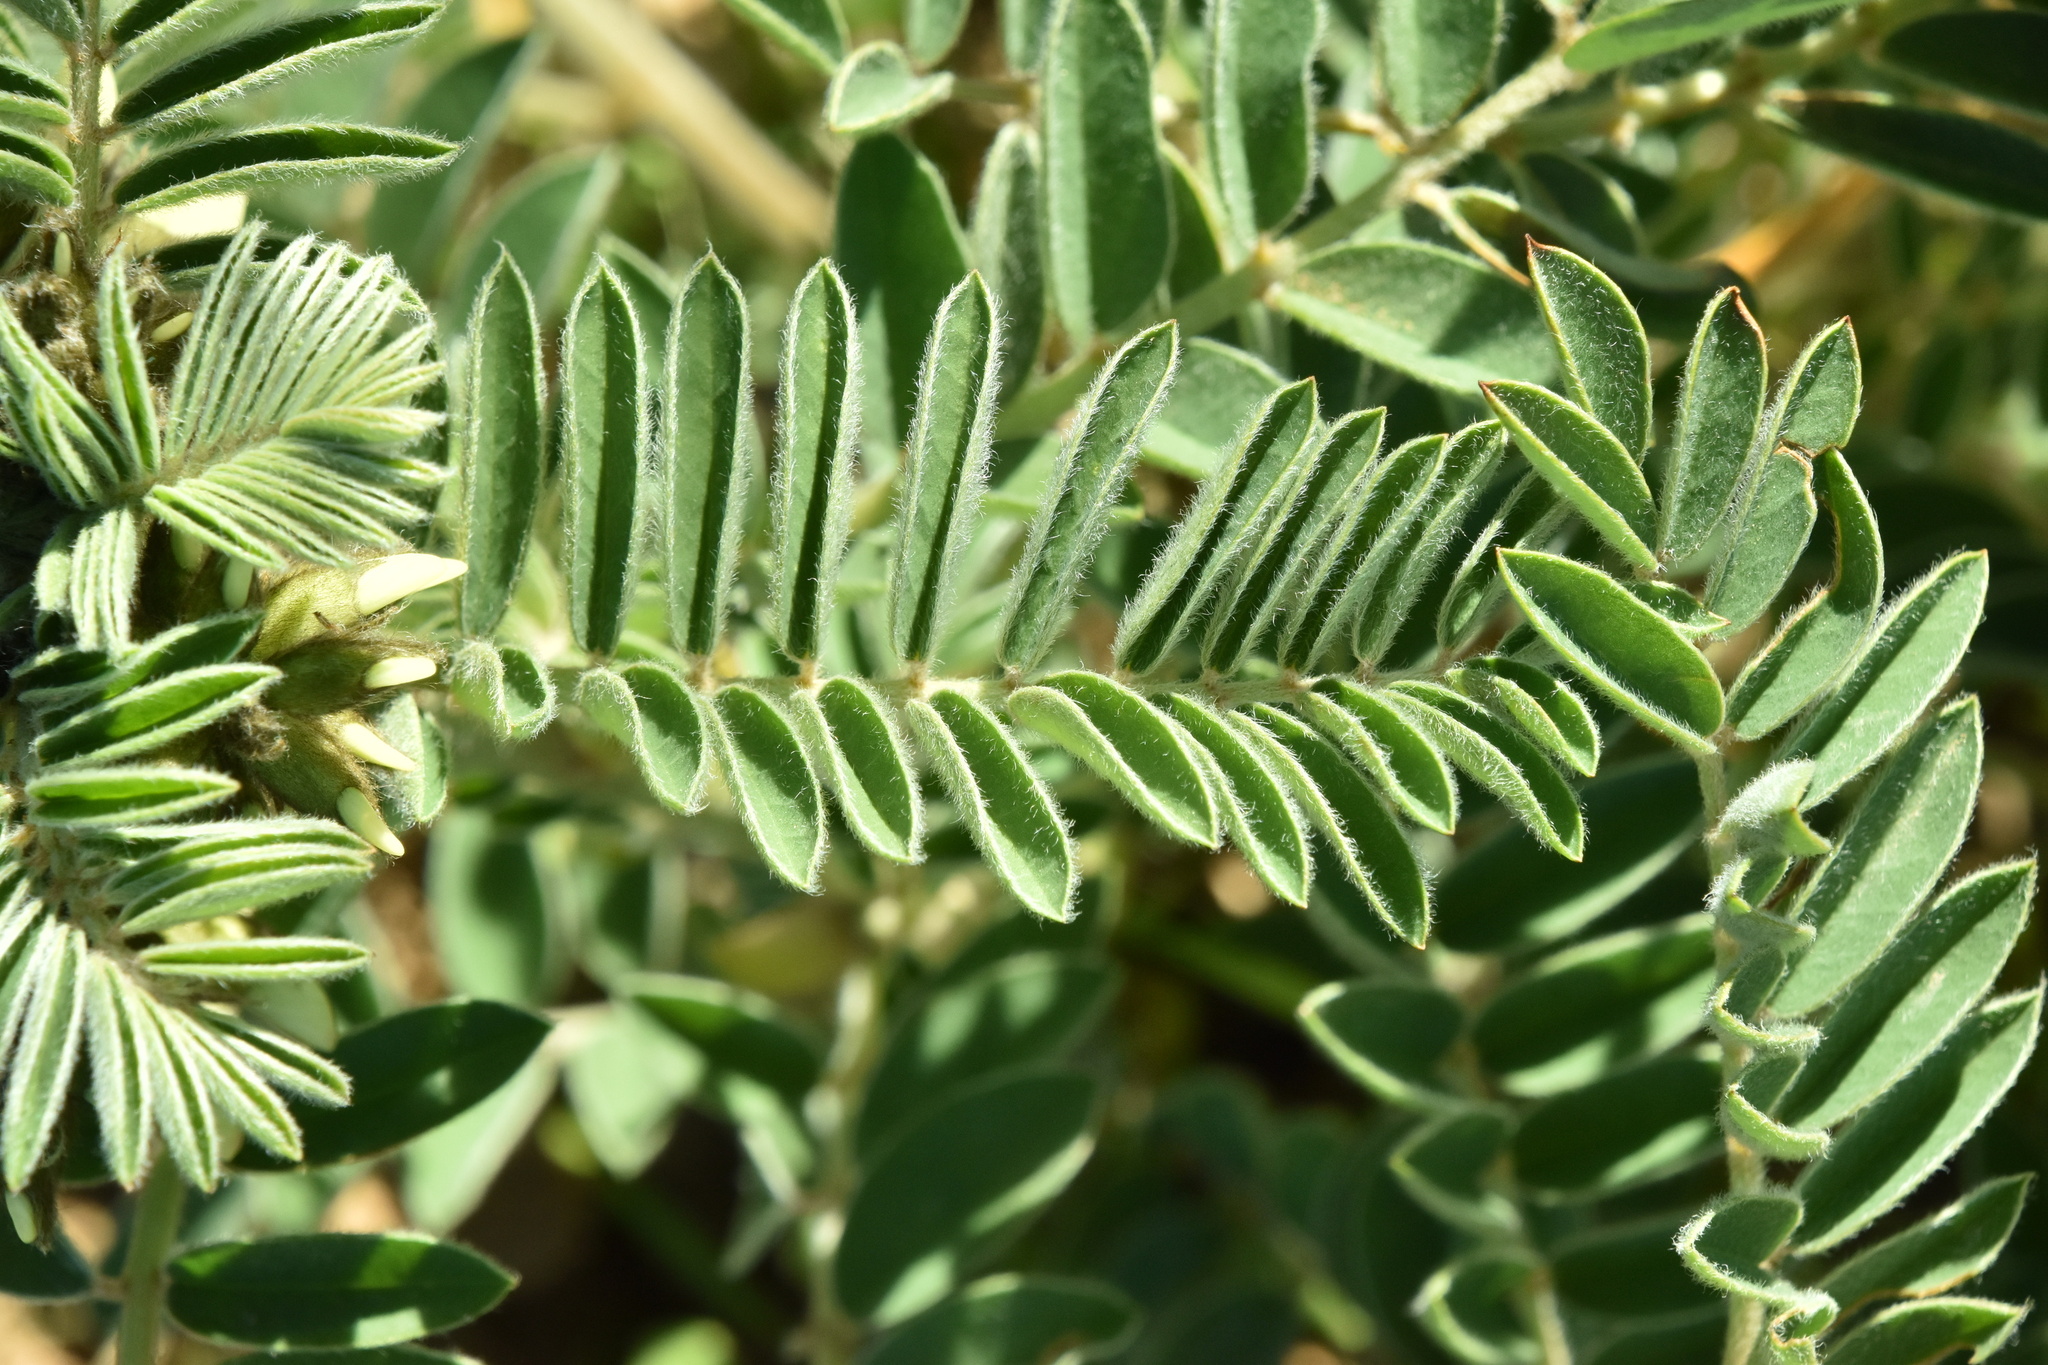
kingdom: Plantae
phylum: Tracheophyta
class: Magnoliopsida
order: Fabales
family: Fabaceae
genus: Erophaca
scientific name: Erophaca baetica
